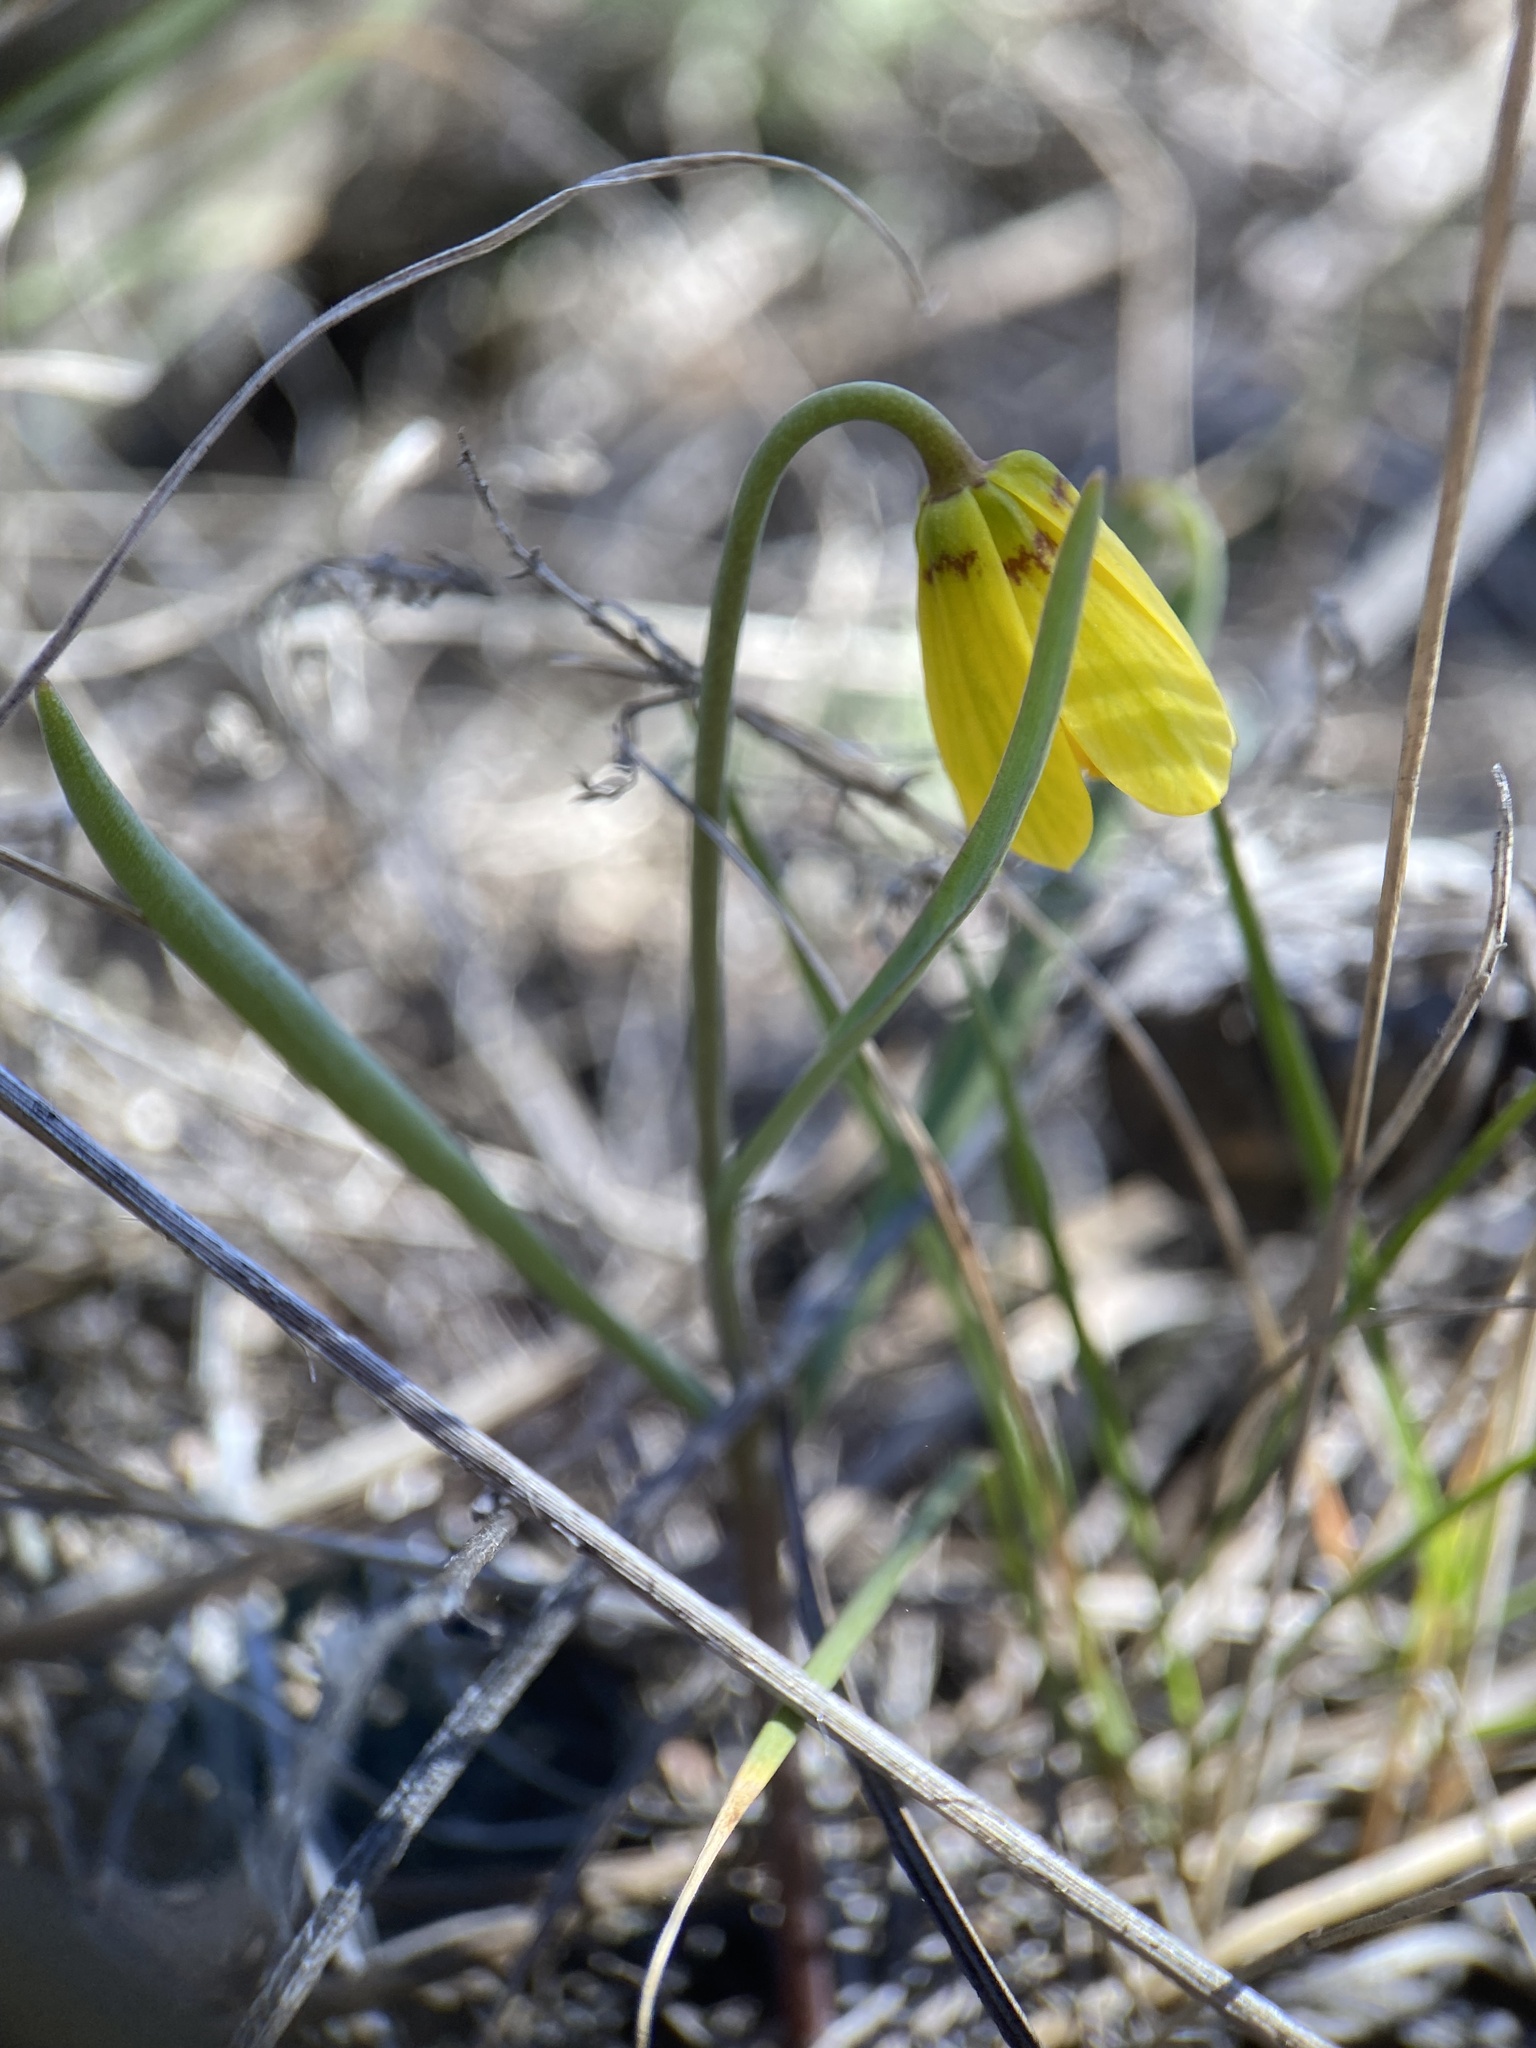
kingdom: Plantae
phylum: Tracheophyta
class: Liliopsida
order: Liliales
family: Liliaceae
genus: Fritillaria
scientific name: Fritillaria pudica
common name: Yellow fritillary
